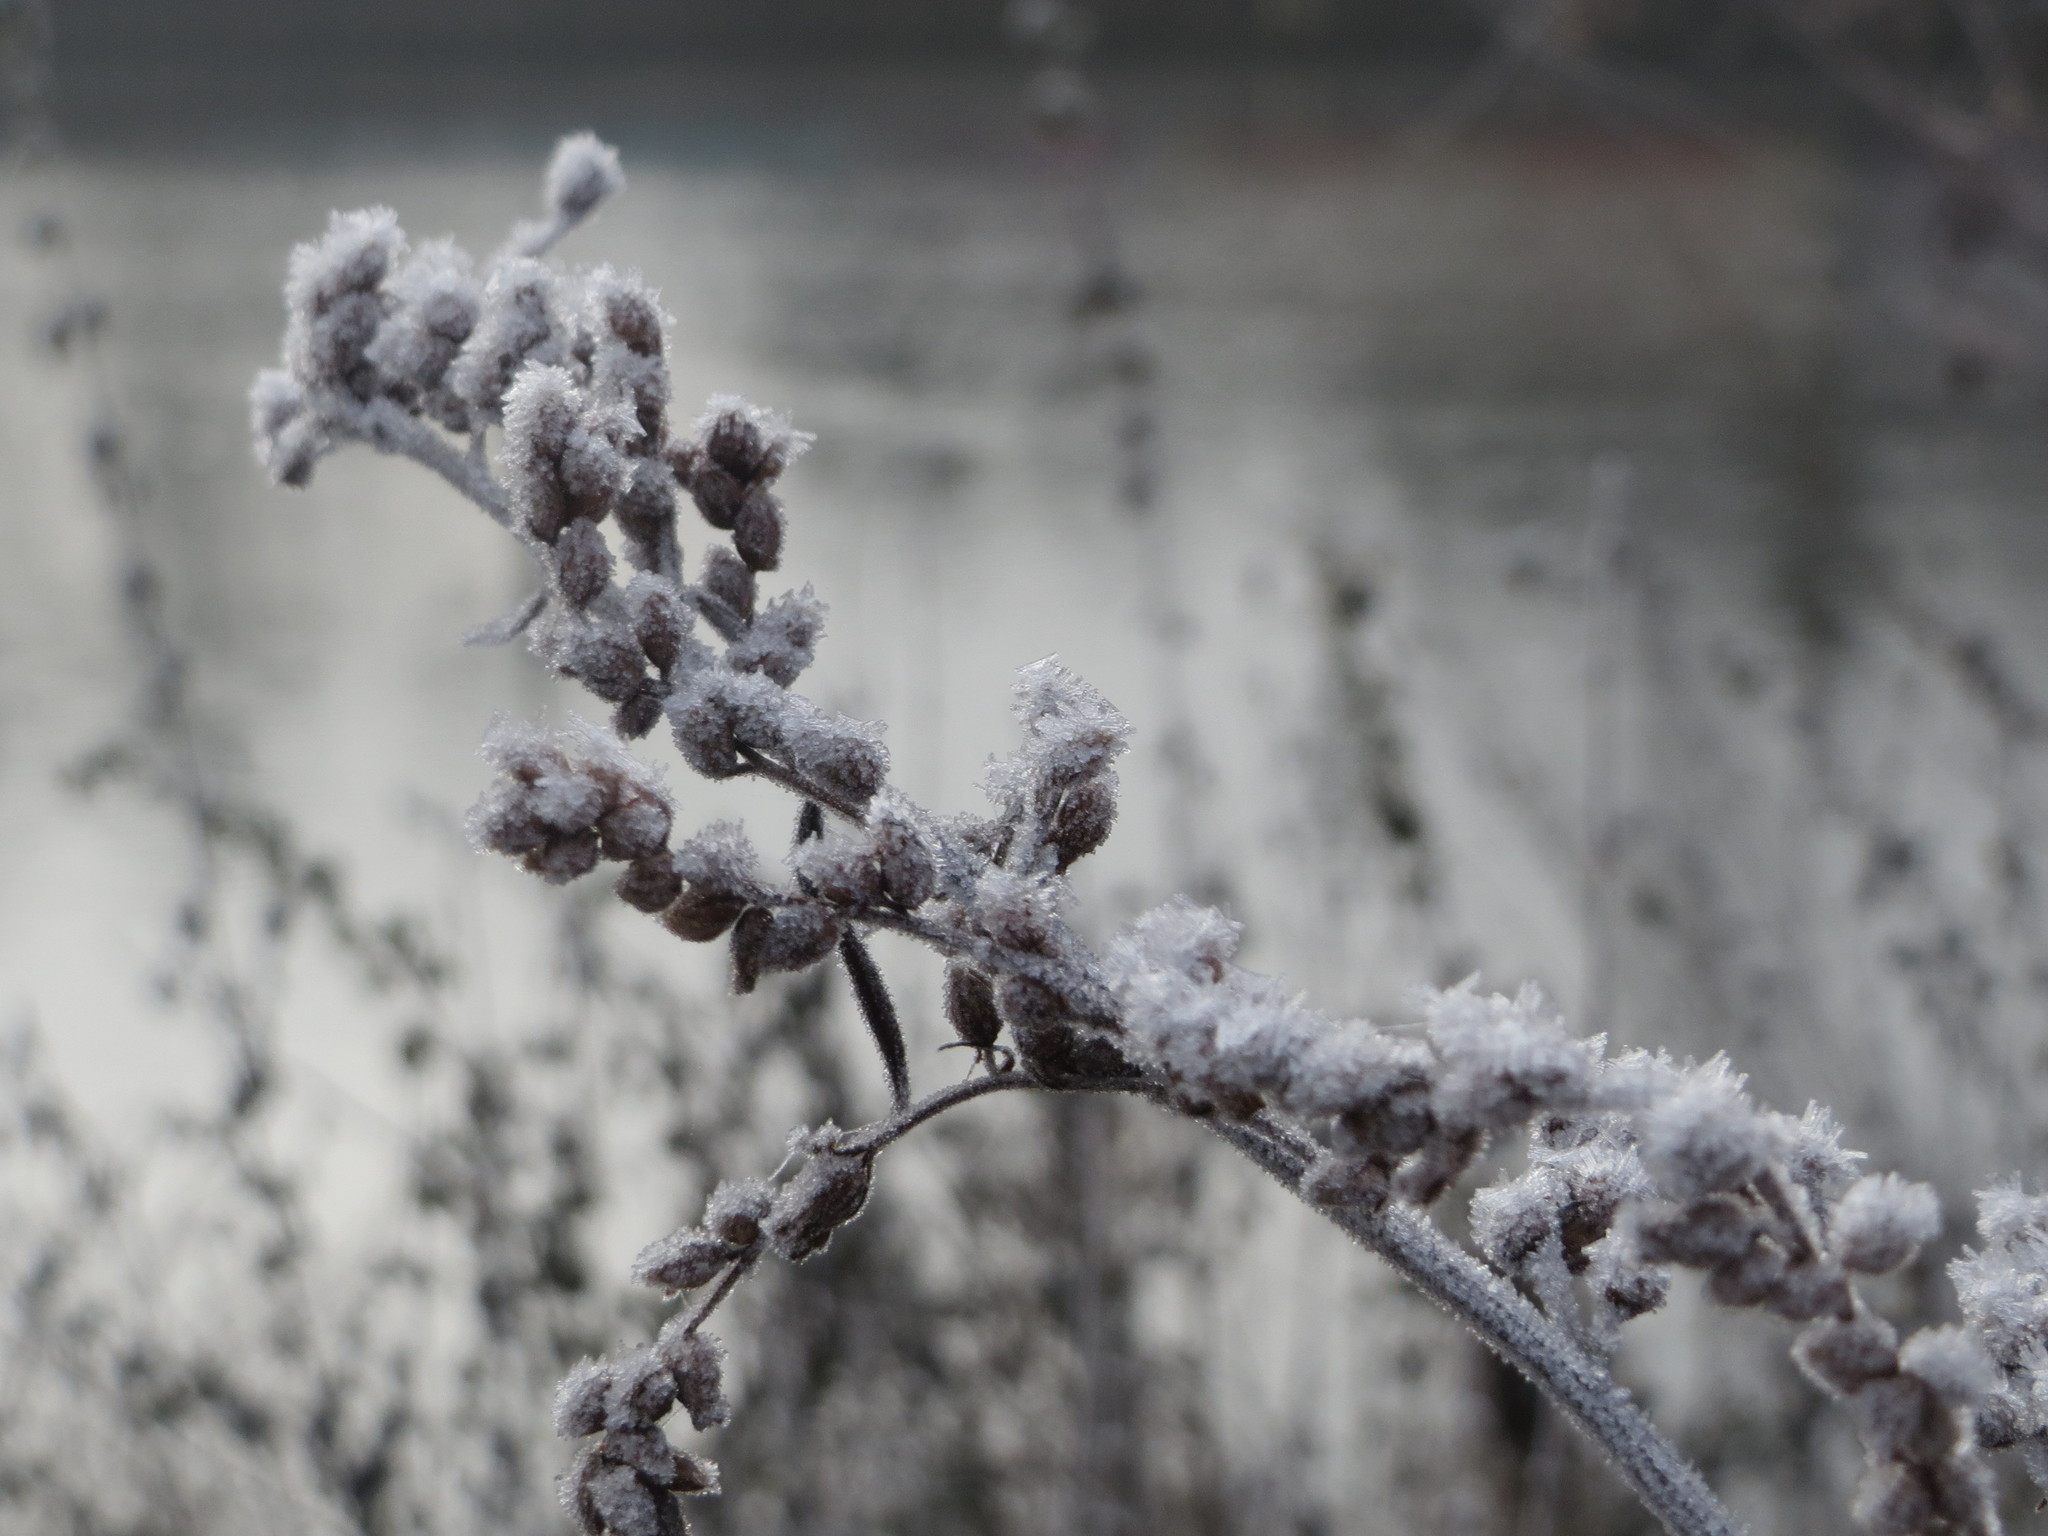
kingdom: Plantae
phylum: Tracheophyta
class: Magnoliopsida
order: Asterales
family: Asteraceae
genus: Artemisia
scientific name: Artemisia vulgaris
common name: Mugwort
